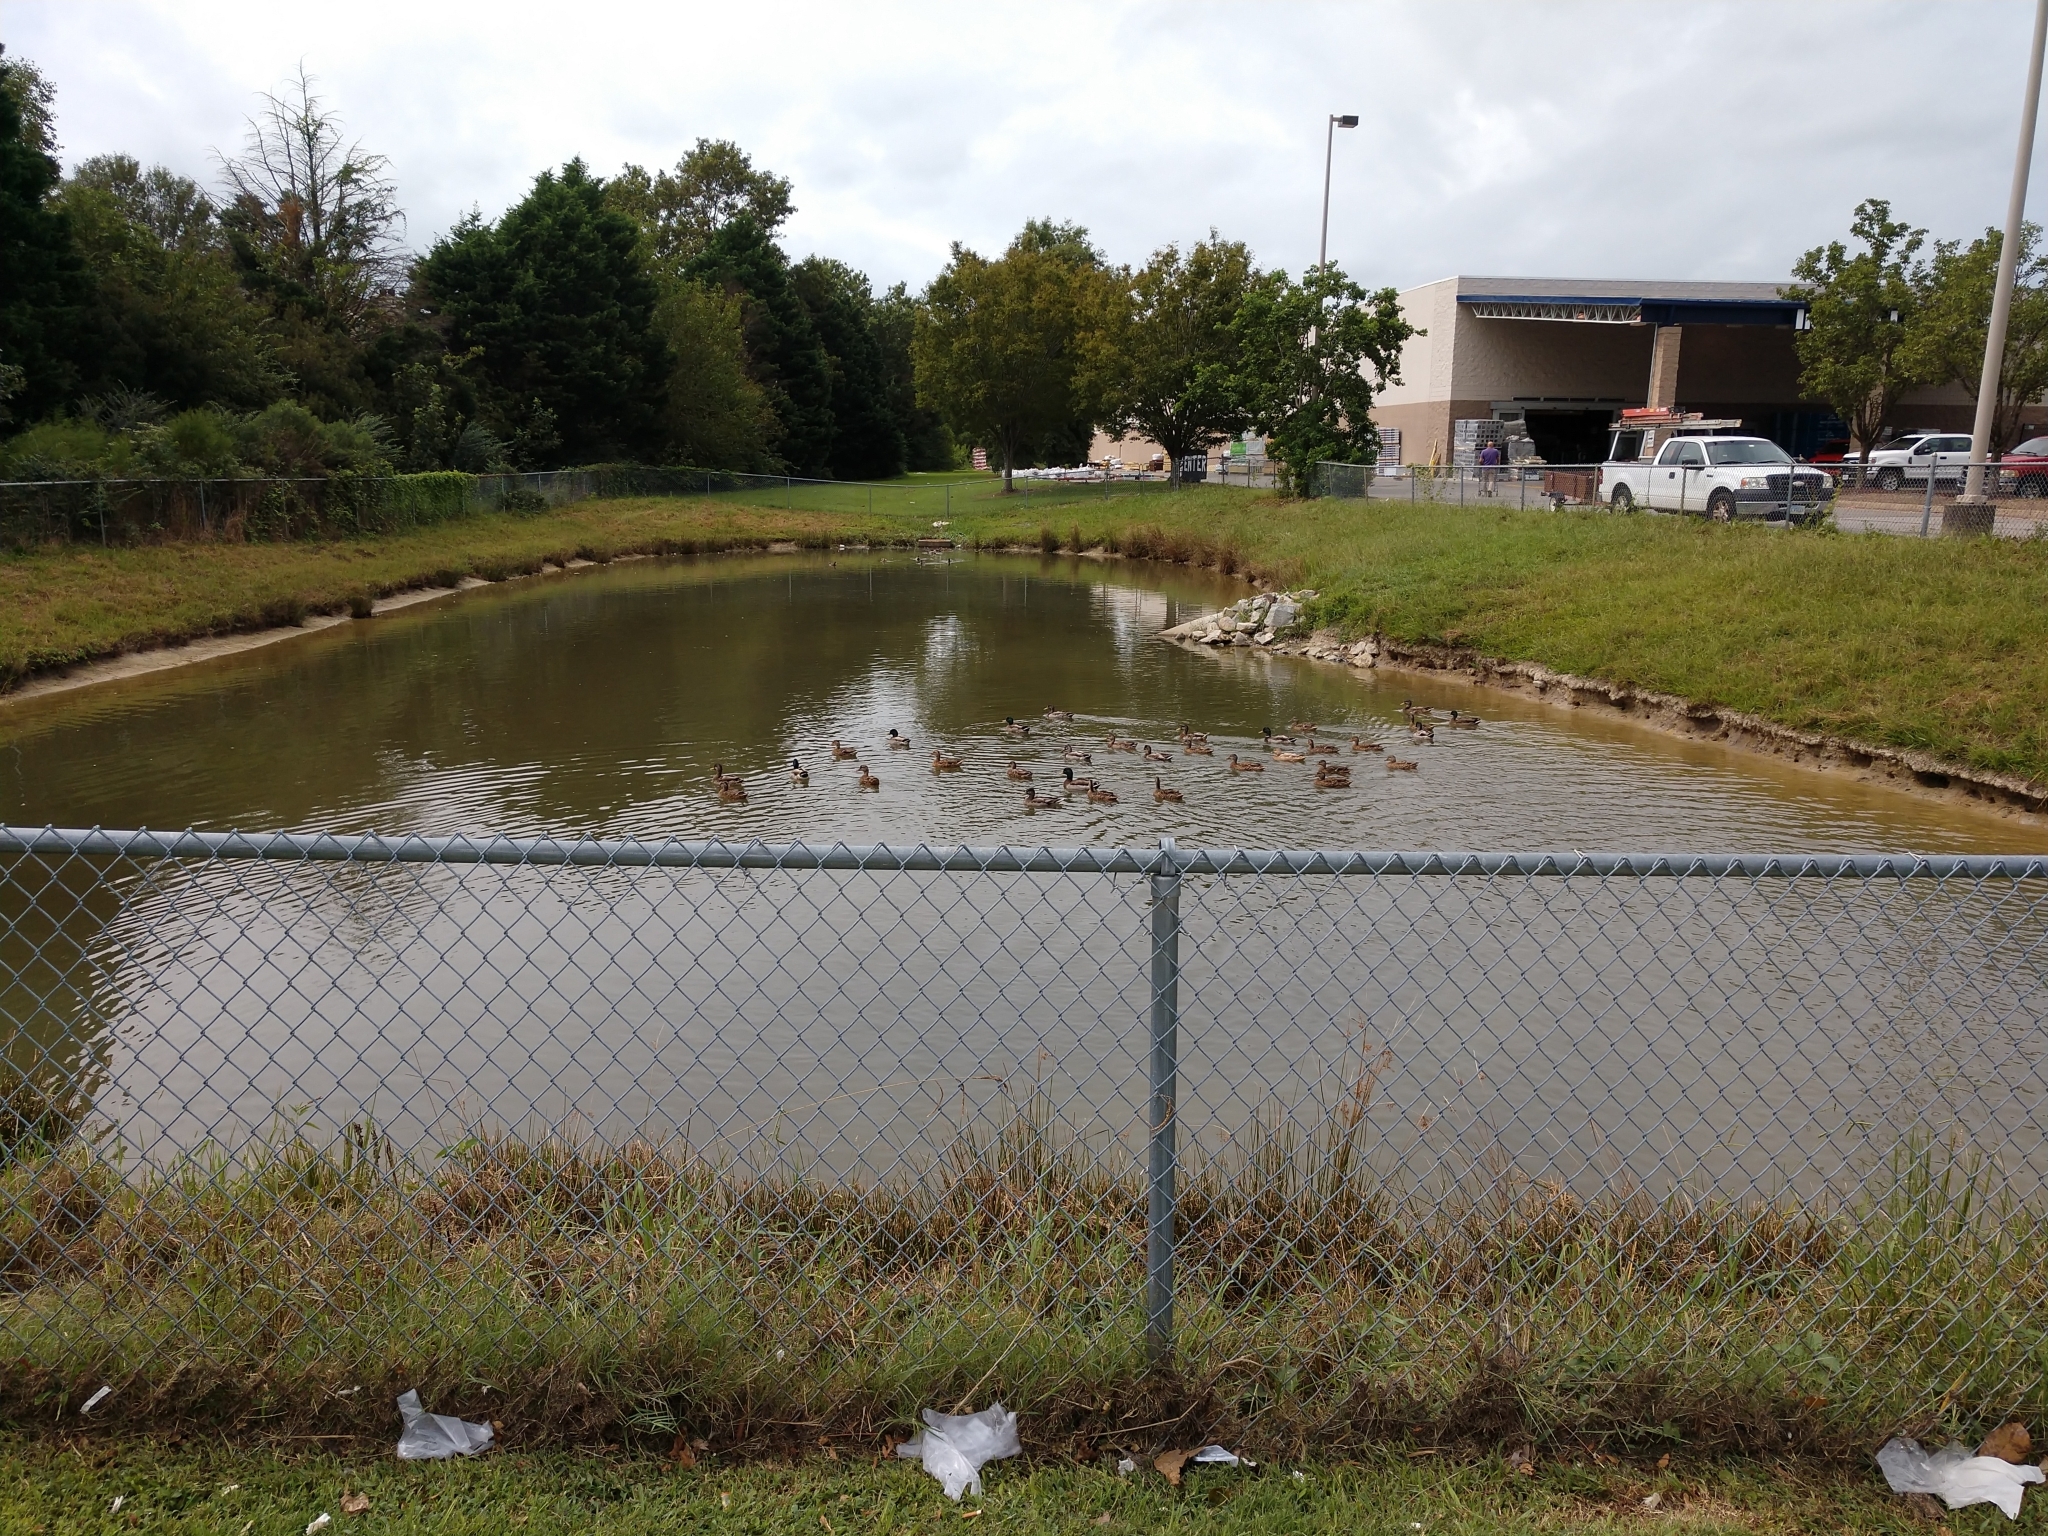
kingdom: Animalia
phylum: Chordata
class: Aves
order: Anseriformes
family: Anatidae
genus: Anas
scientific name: Anas platyrhynchos
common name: Mallard
